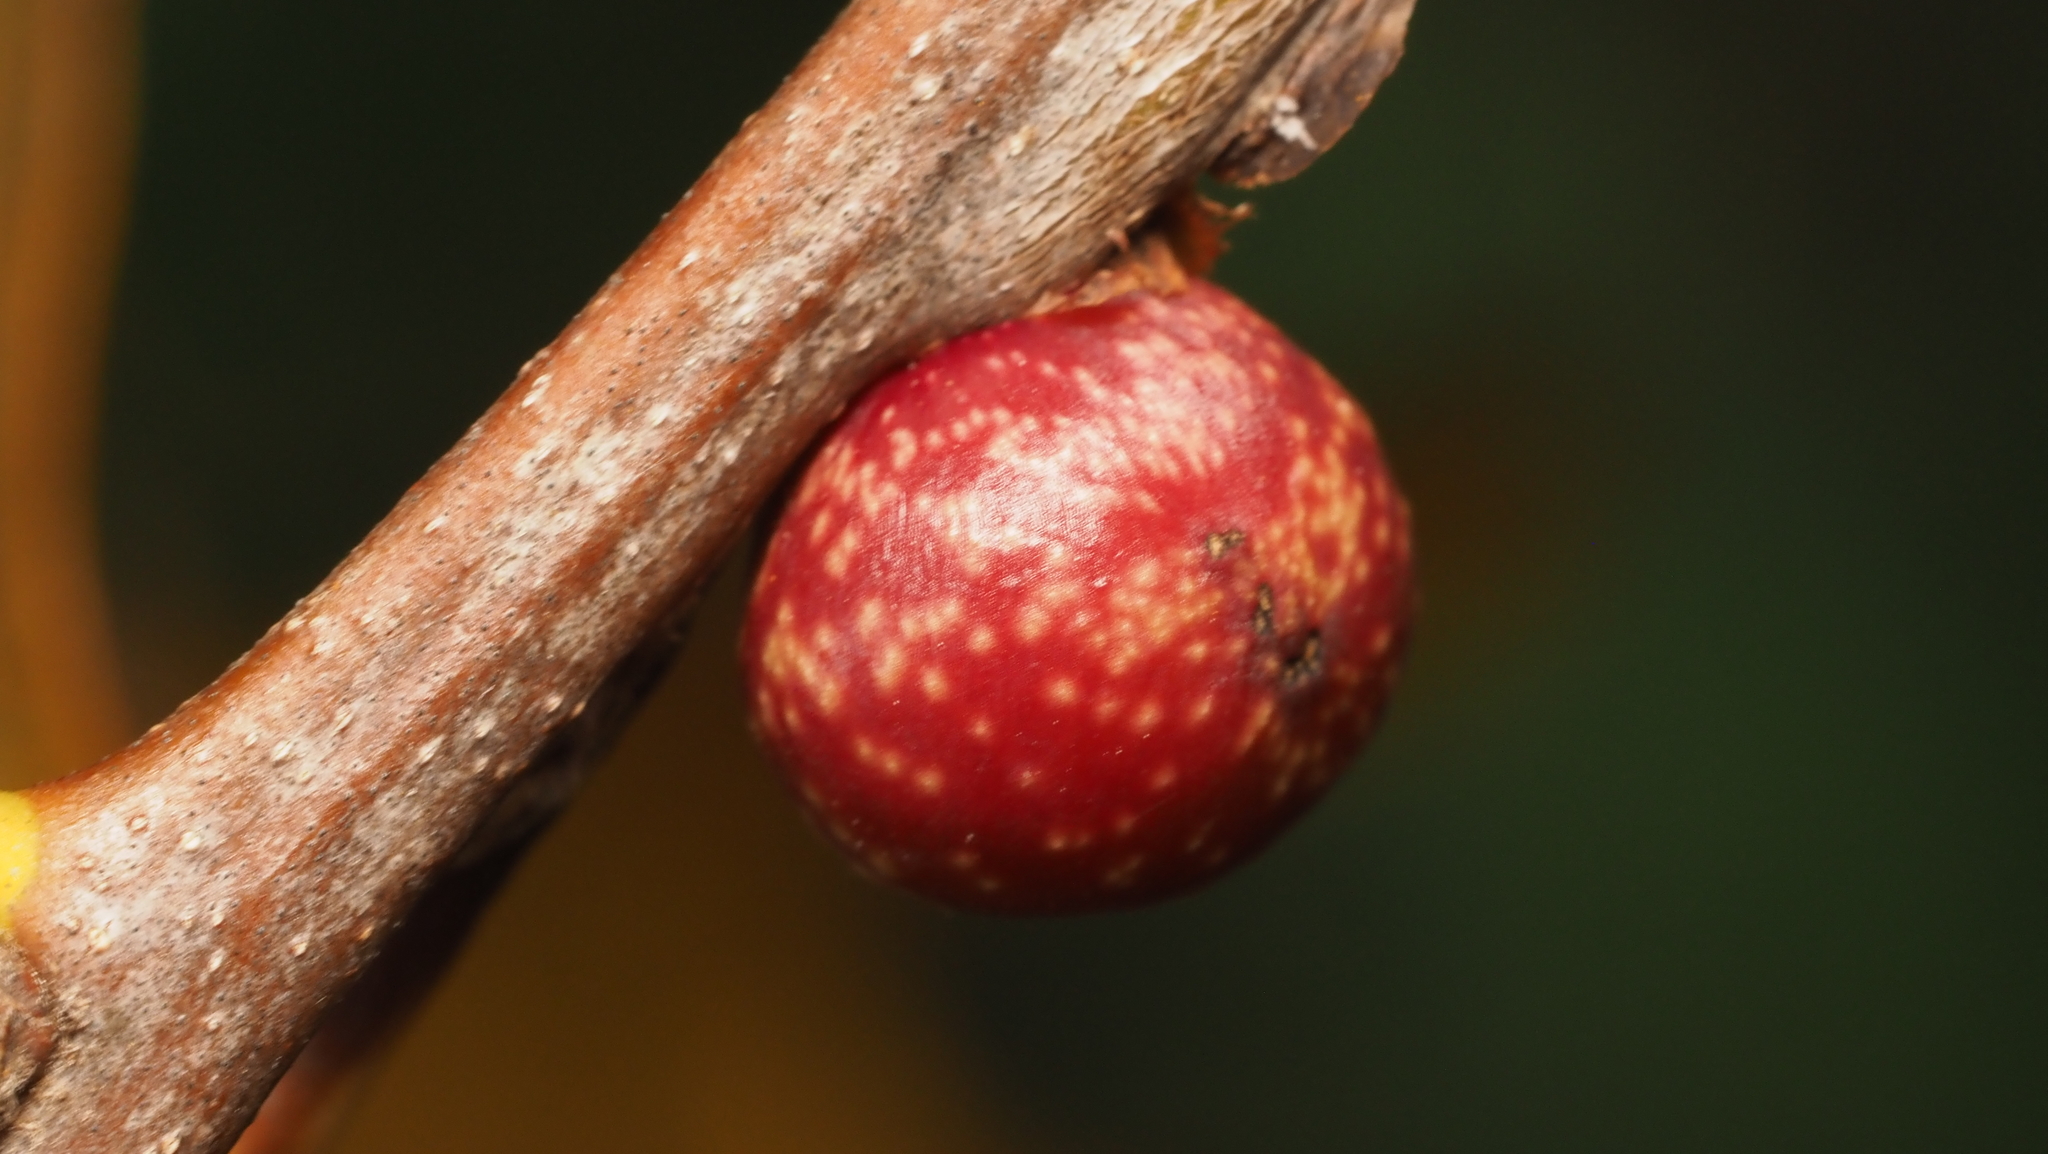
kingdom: Animalia
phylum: Arthropoda
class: Insecta
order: Hymenoptera
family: Cynipidae
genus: Kokkocynips
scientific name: Kokkocynips imbricariae
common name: Banded bullet gall wasp
